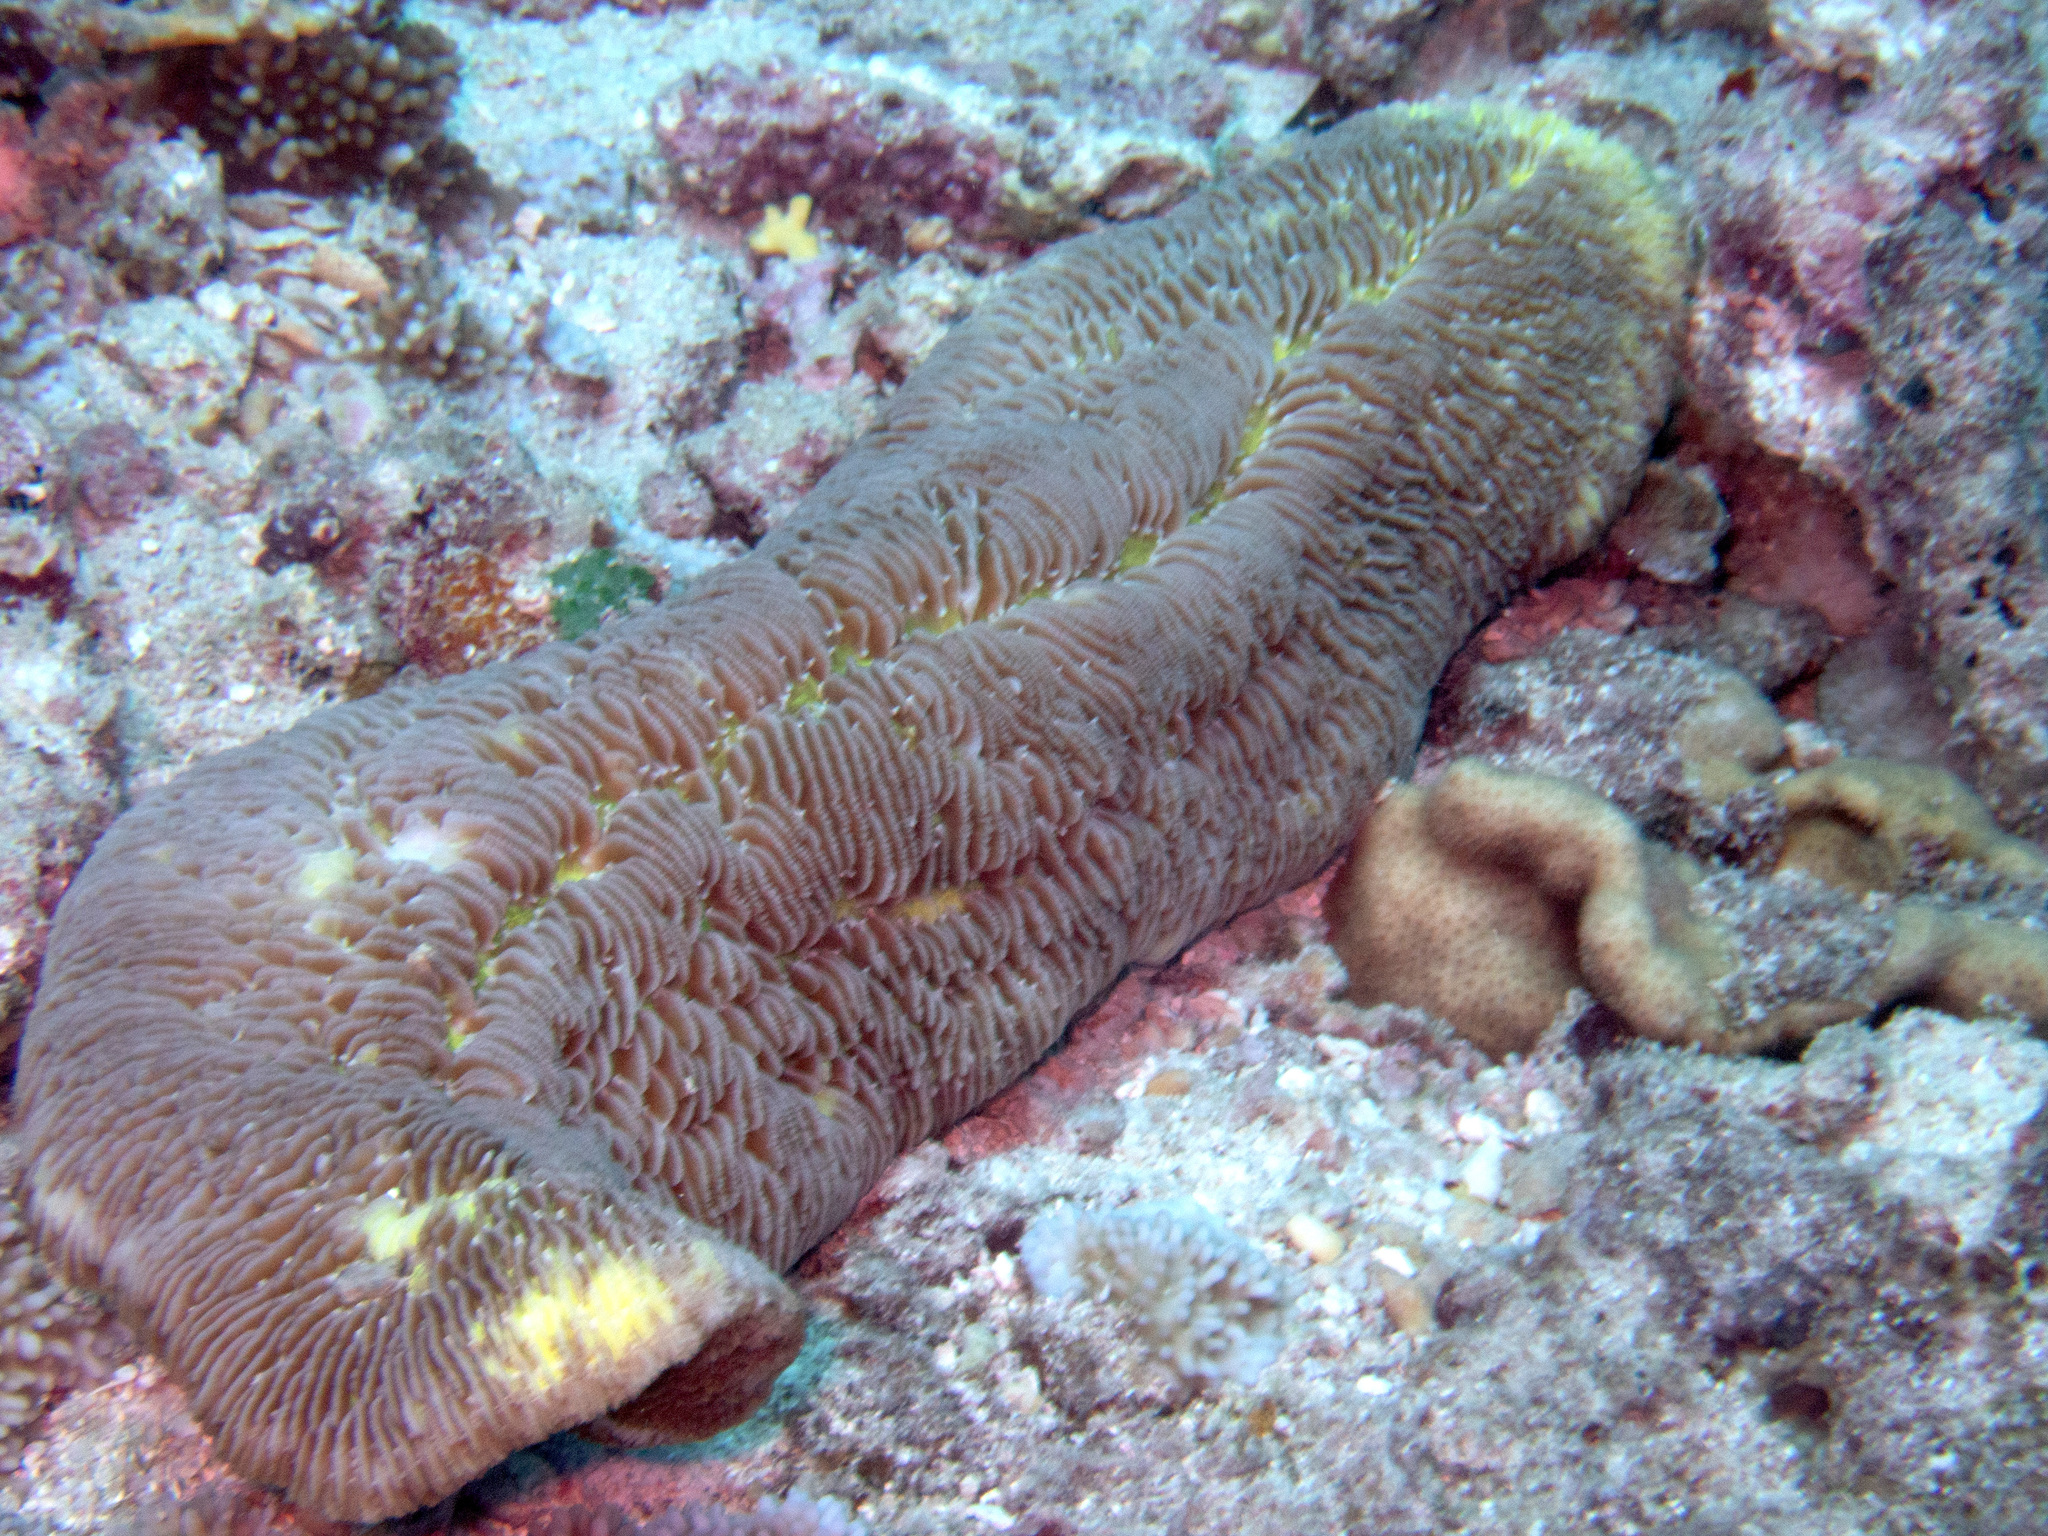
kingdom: Animalia
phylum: Cnidaria
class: Anthozoa
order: Scleractinia
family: Fungiidae
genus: Herpolitha
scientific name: Herpolitha limax
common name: Striate boomerang coral
